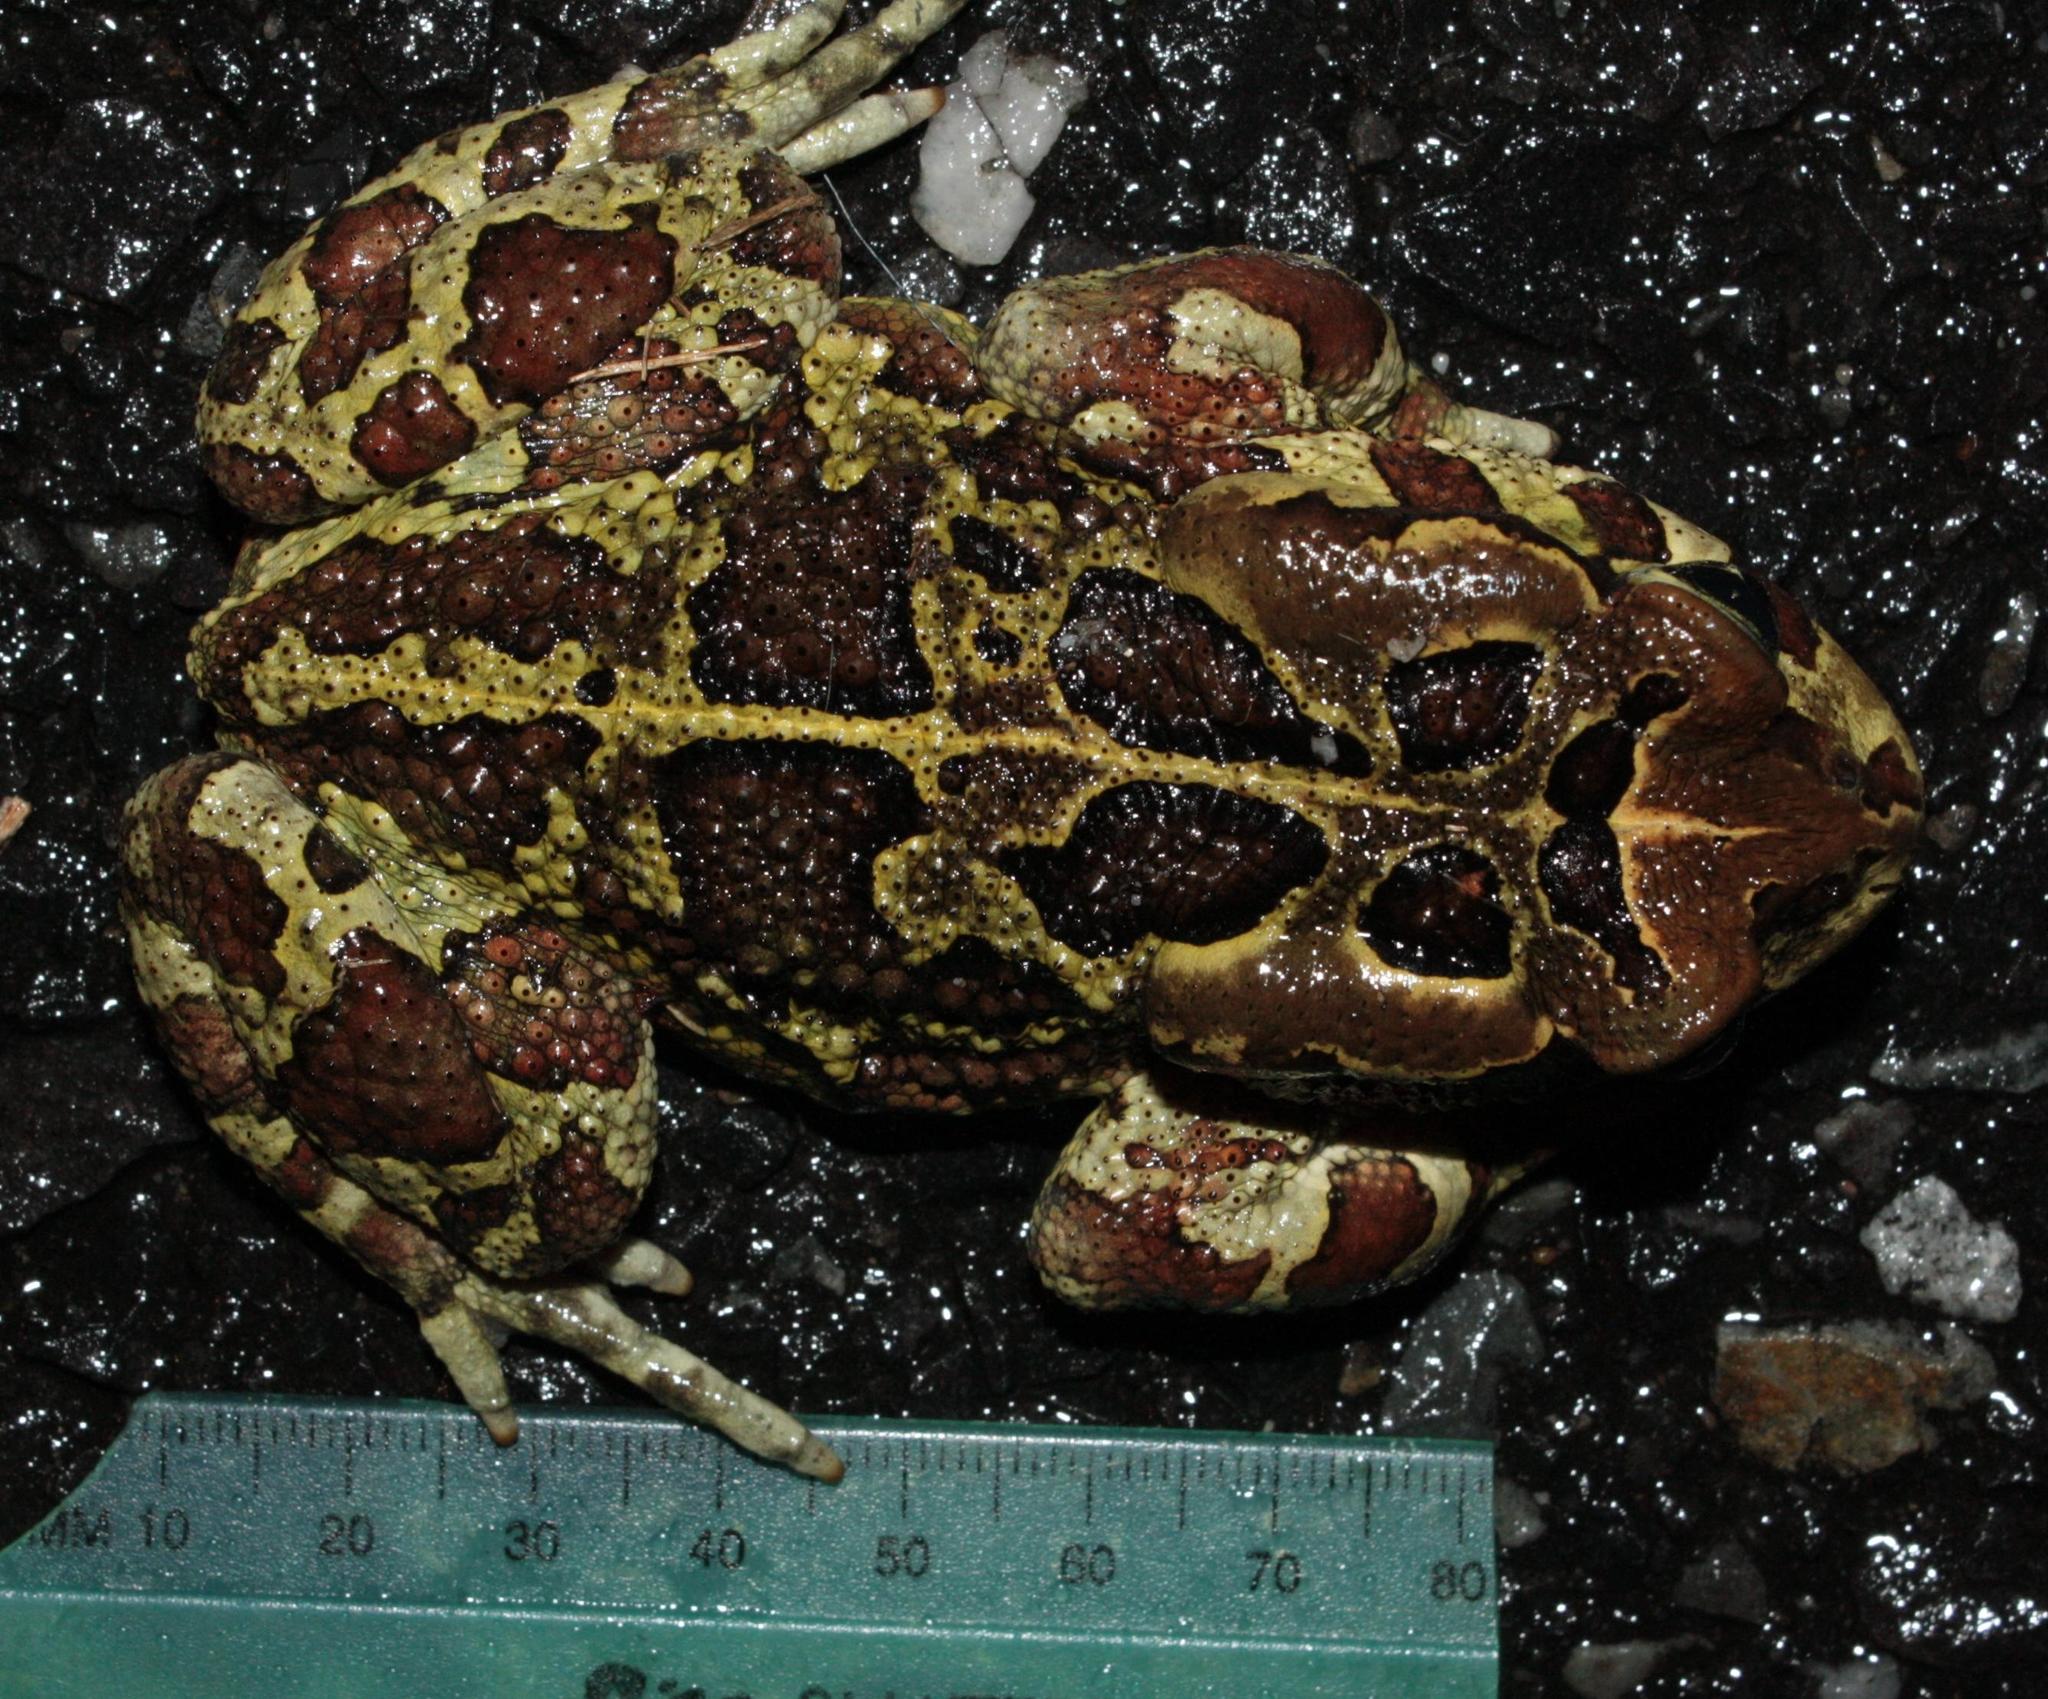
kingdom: Animalia
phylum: Chordata
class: Amphibia
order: Anura
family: Bufonidae
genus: Sclerophrys
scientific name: Sclerophrys pantherina
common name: Panther toad
